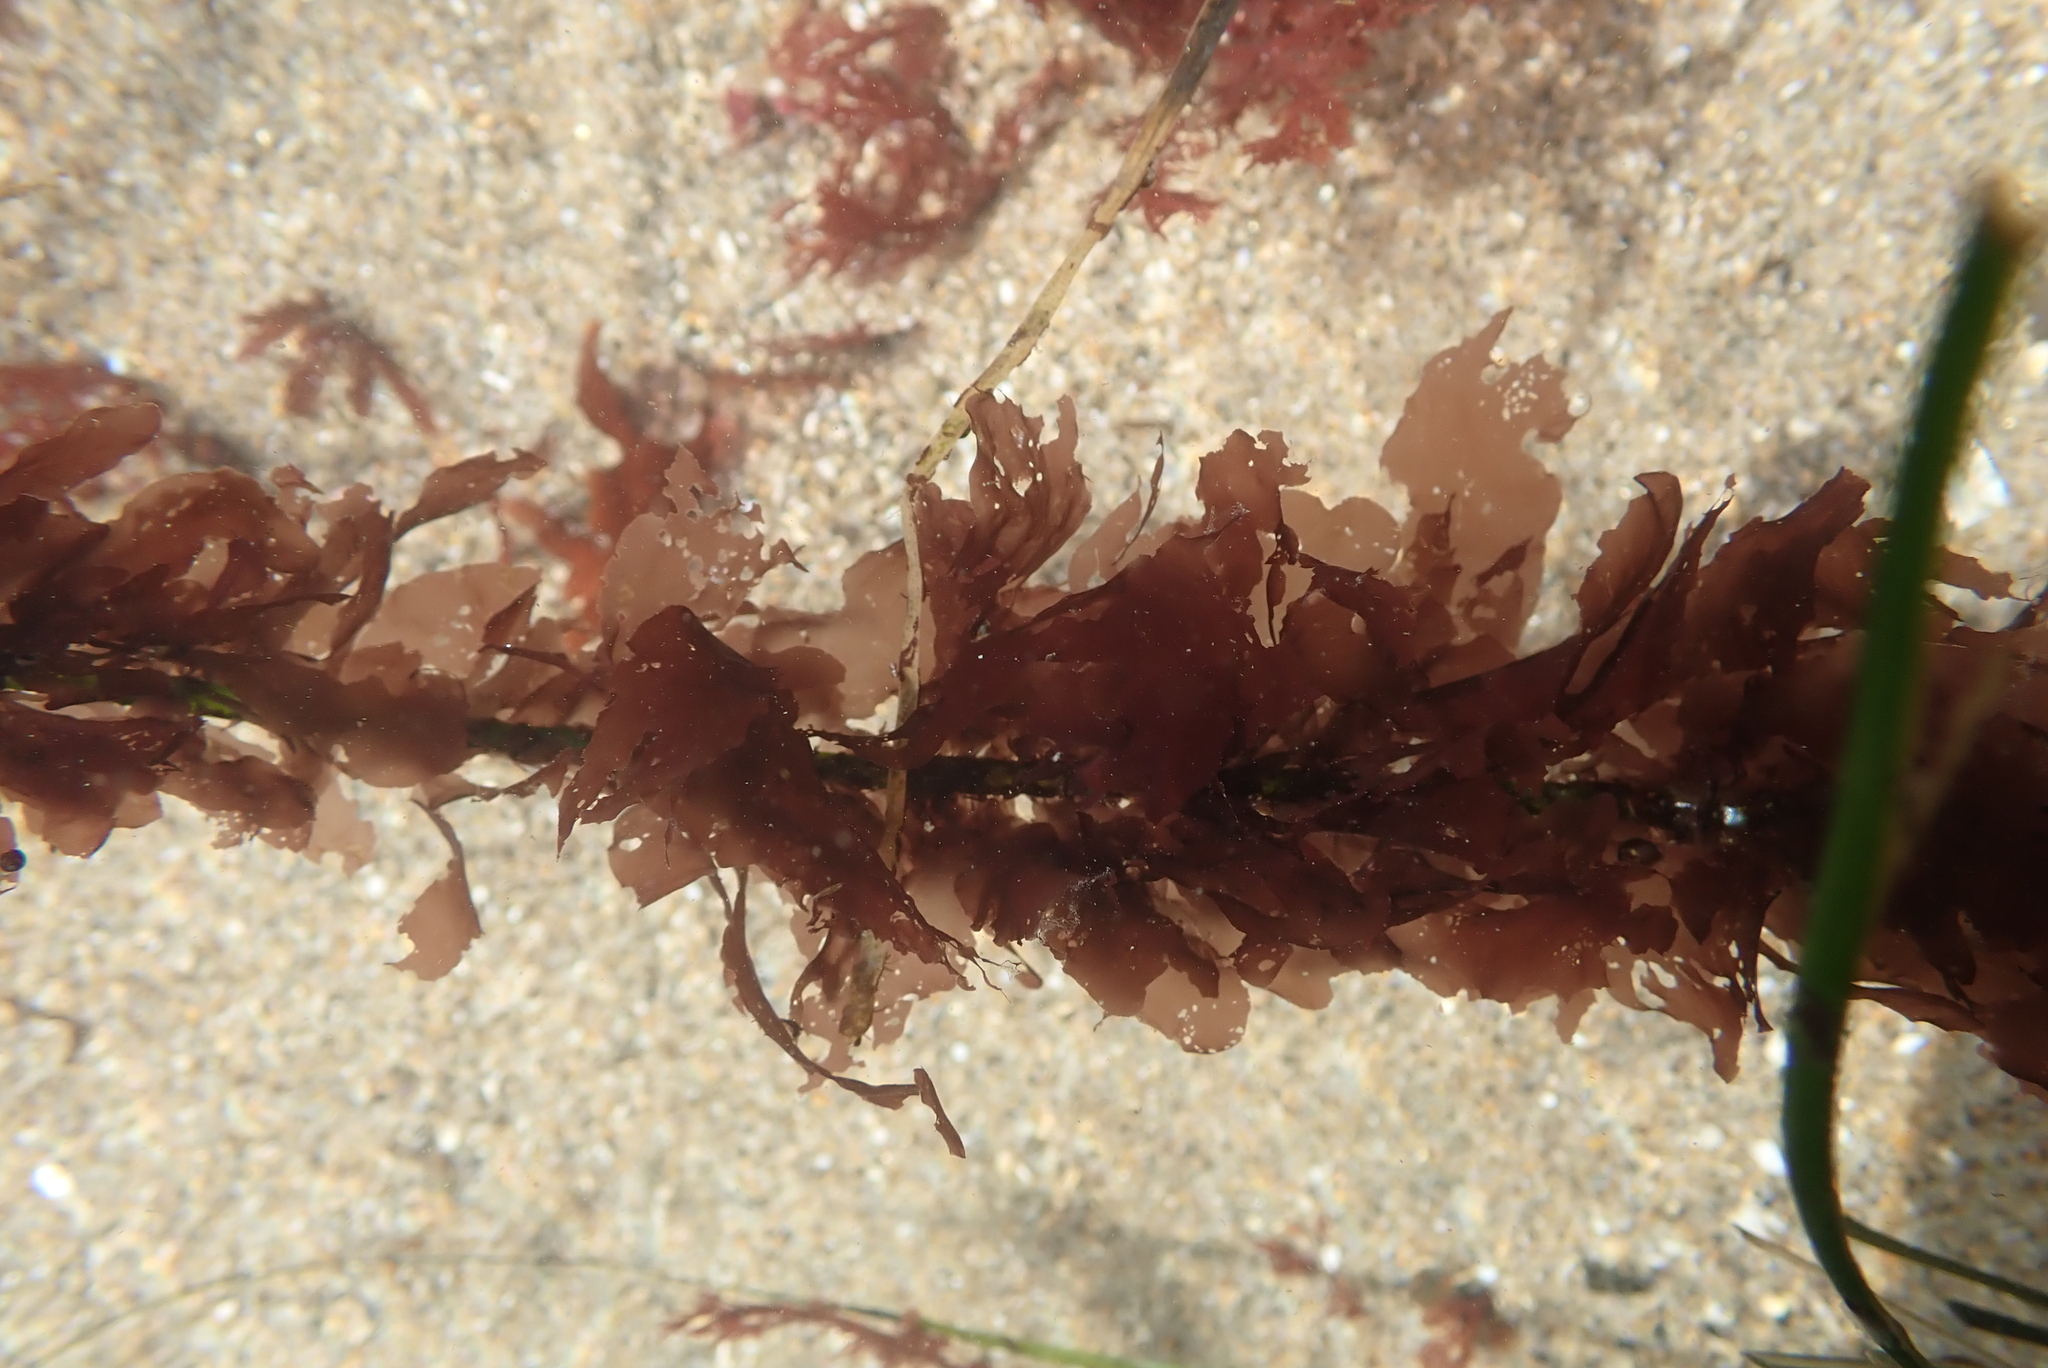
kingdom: Plantae
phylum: Rhodophyta
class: Compsopogonophyceae
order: Erythropeltidales
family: Erythrotrichiaceae
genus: Smithora
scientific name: Smithora naiadum
